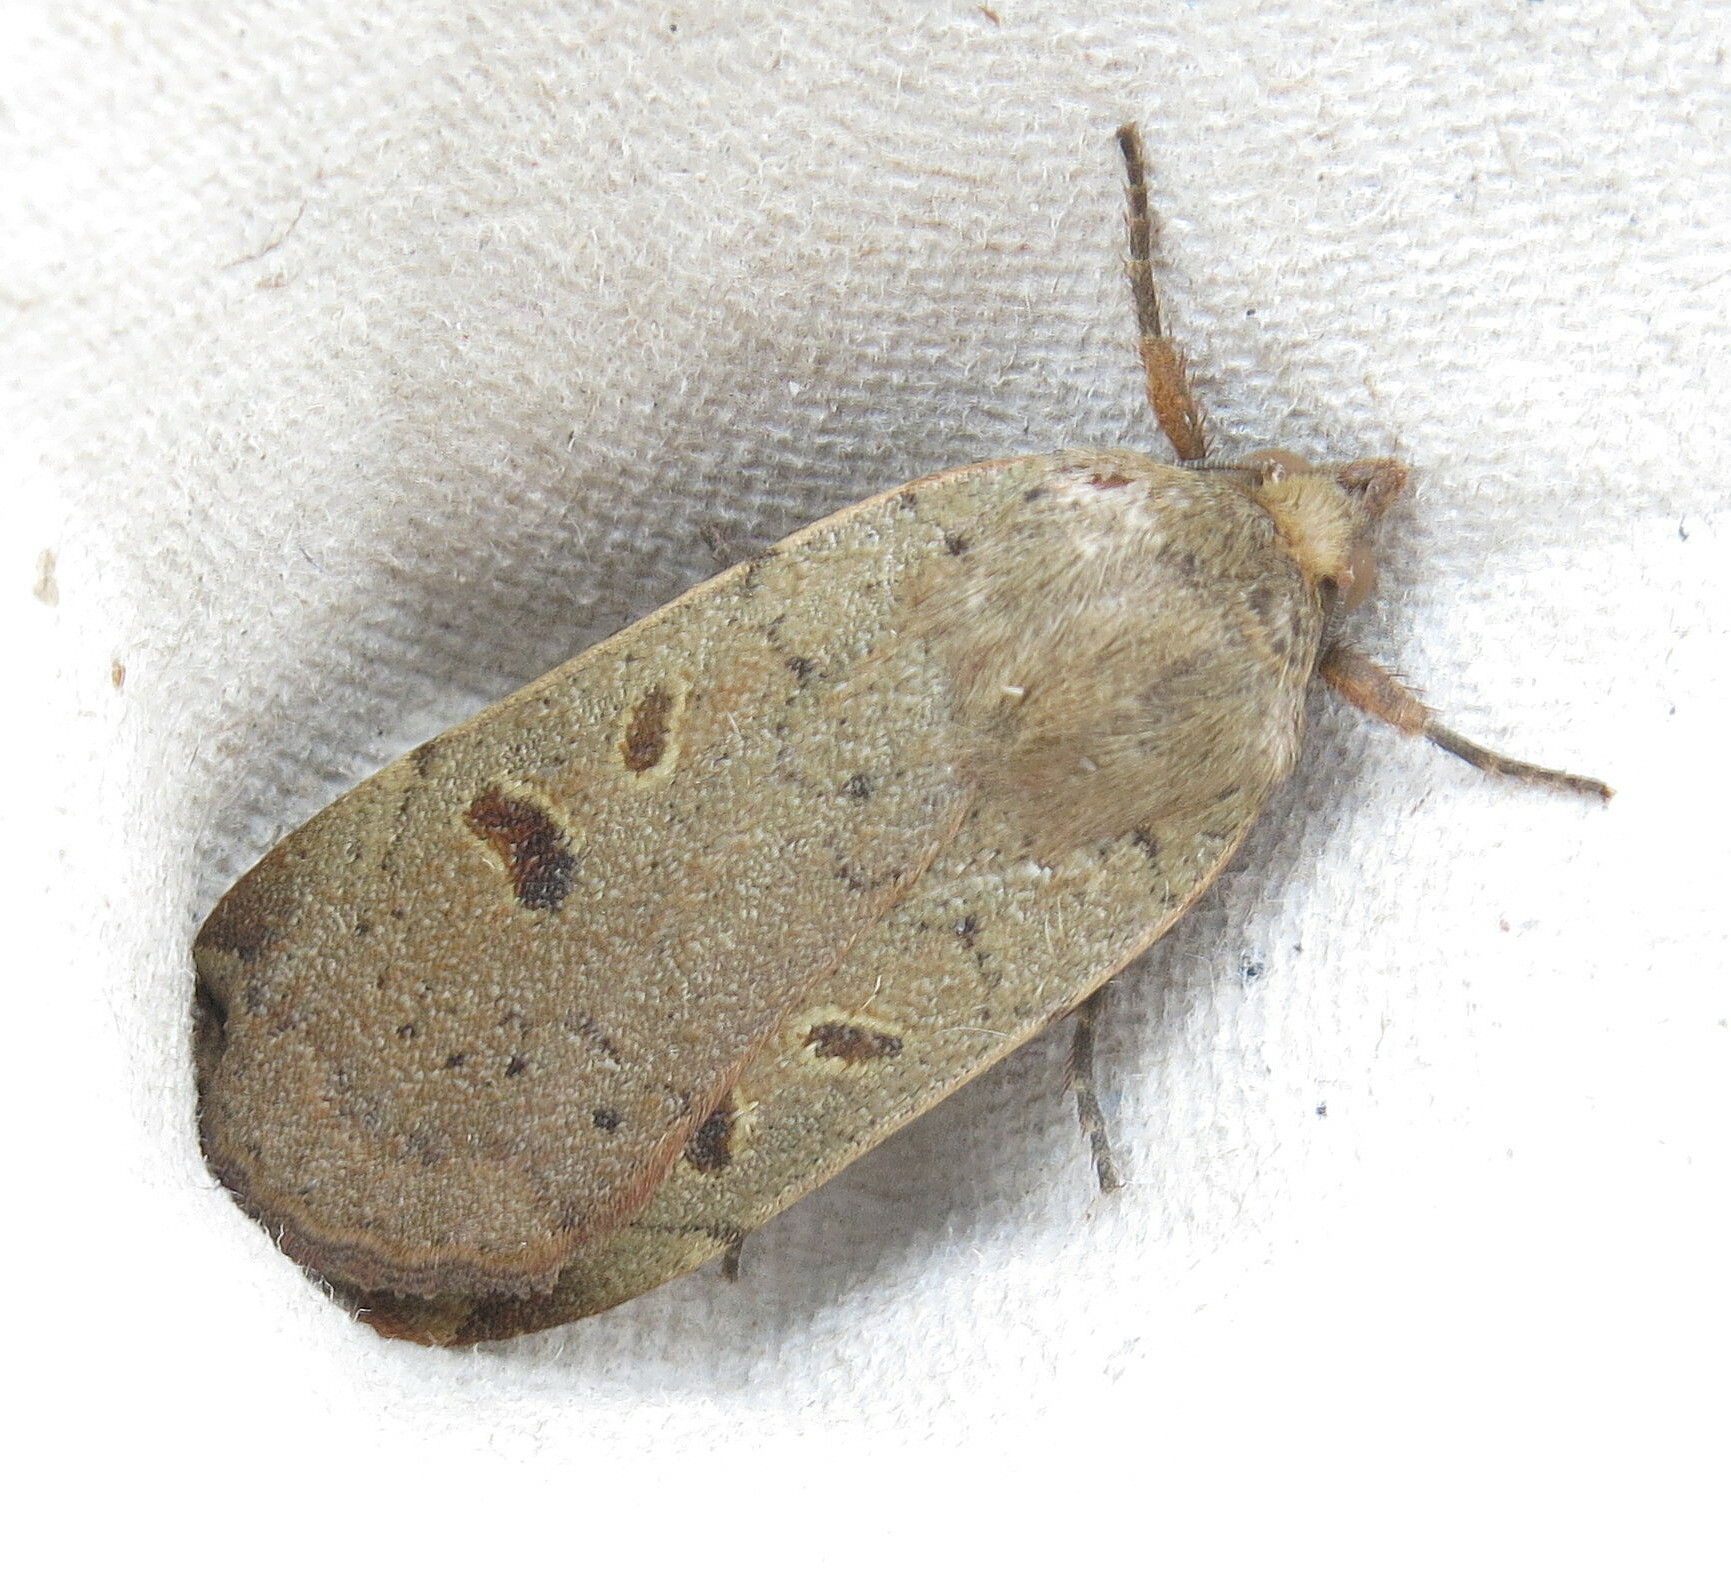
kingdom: Animalia
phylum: Arthropoda
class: Insecta
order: Lepidoptera
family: Noctuidae
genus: Noctua
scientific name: Noctua comes
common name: Lesser yellow underwing
